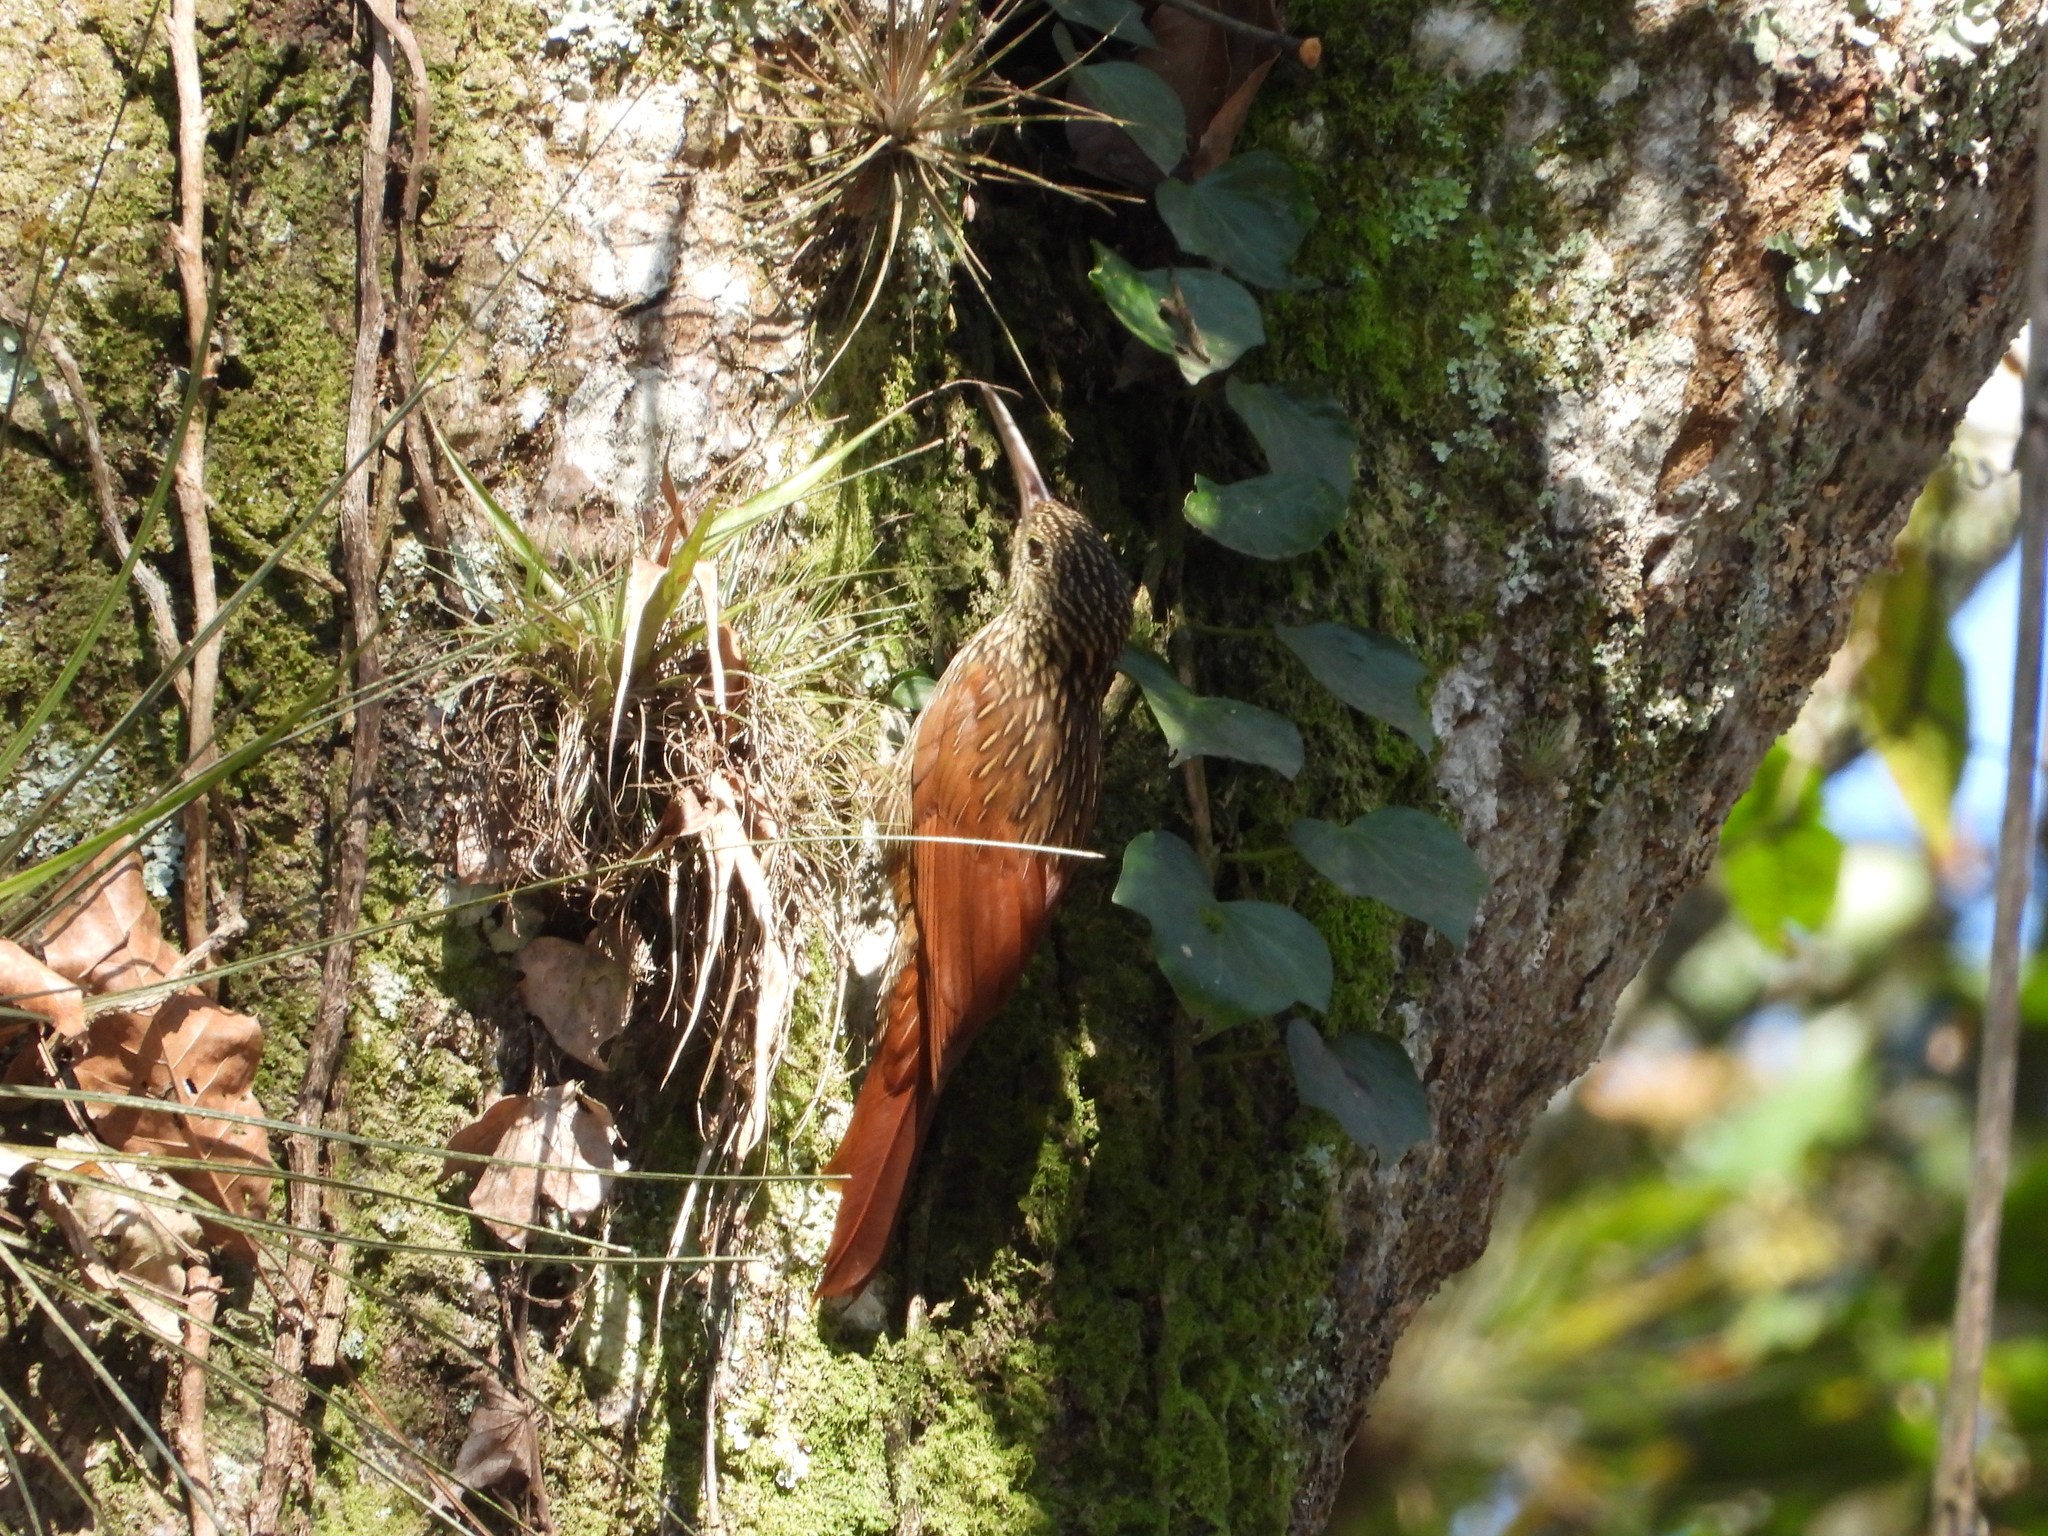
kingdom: Animalia
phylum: Chordata
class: Aves
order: Passeriformes
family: Furnariidae
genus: Xiphorhynchus
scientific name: Xiphorhynchus flavigaster
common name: Ivory-billed woodcreeper
